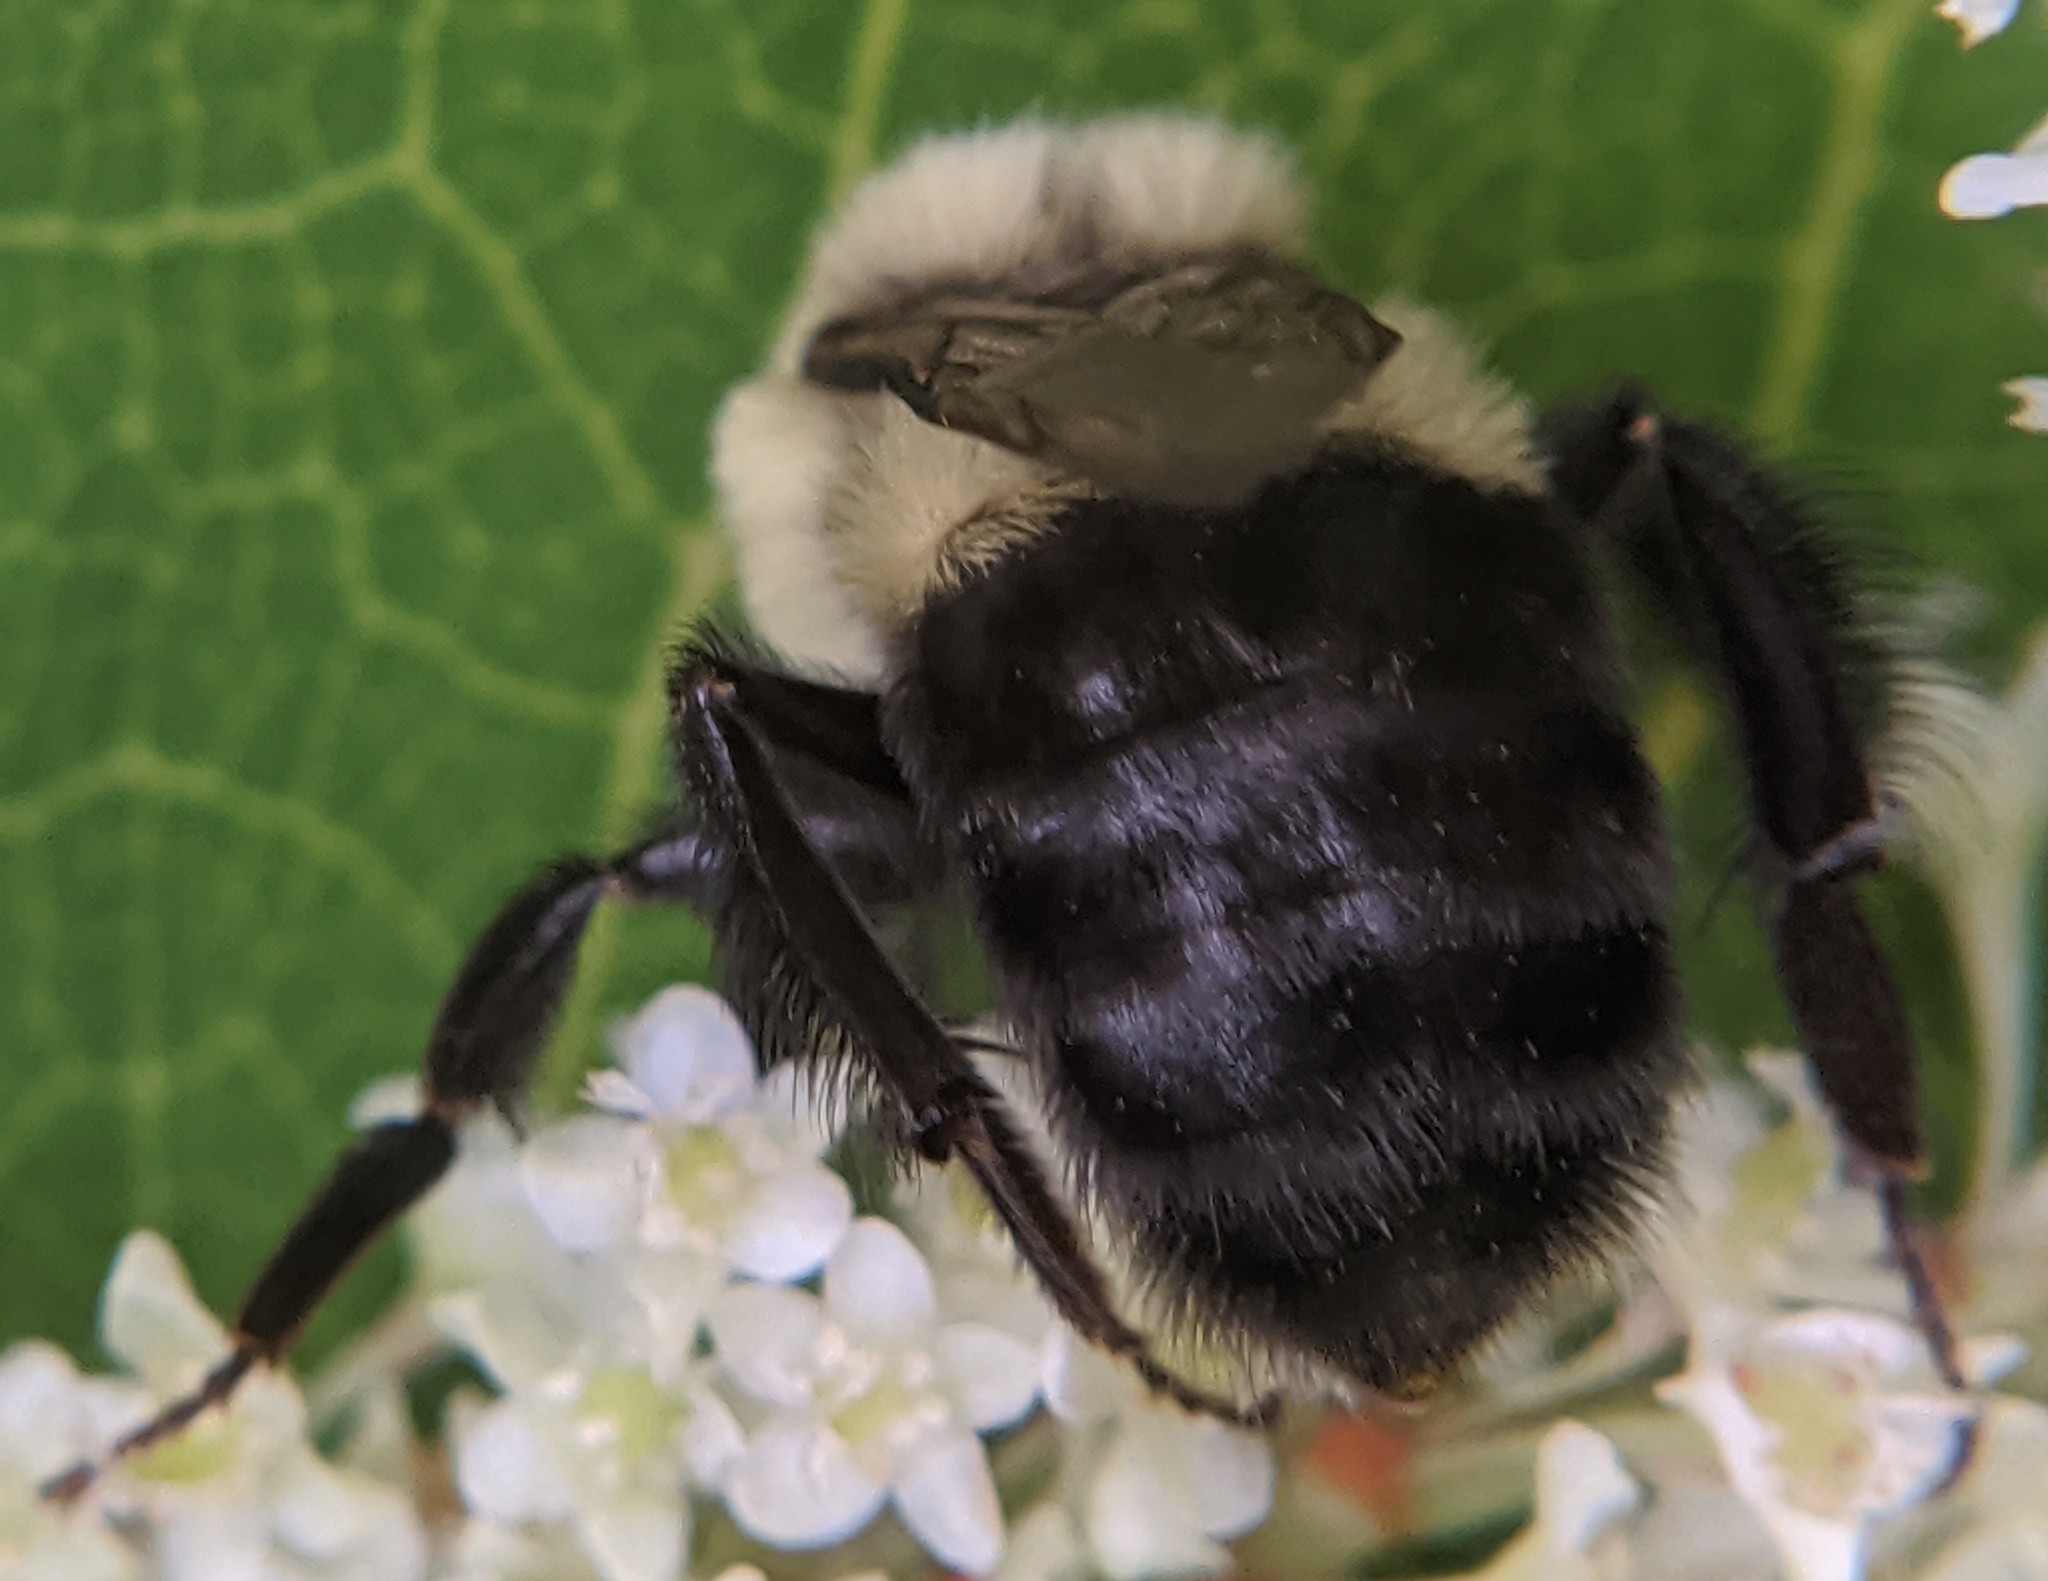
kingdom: Animalia
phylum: Arthropoda
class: Insecta
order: Hymenoptera
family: Apidae
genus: Bombus
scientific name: Bombus impatiens
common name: Common eastern bumble bee
